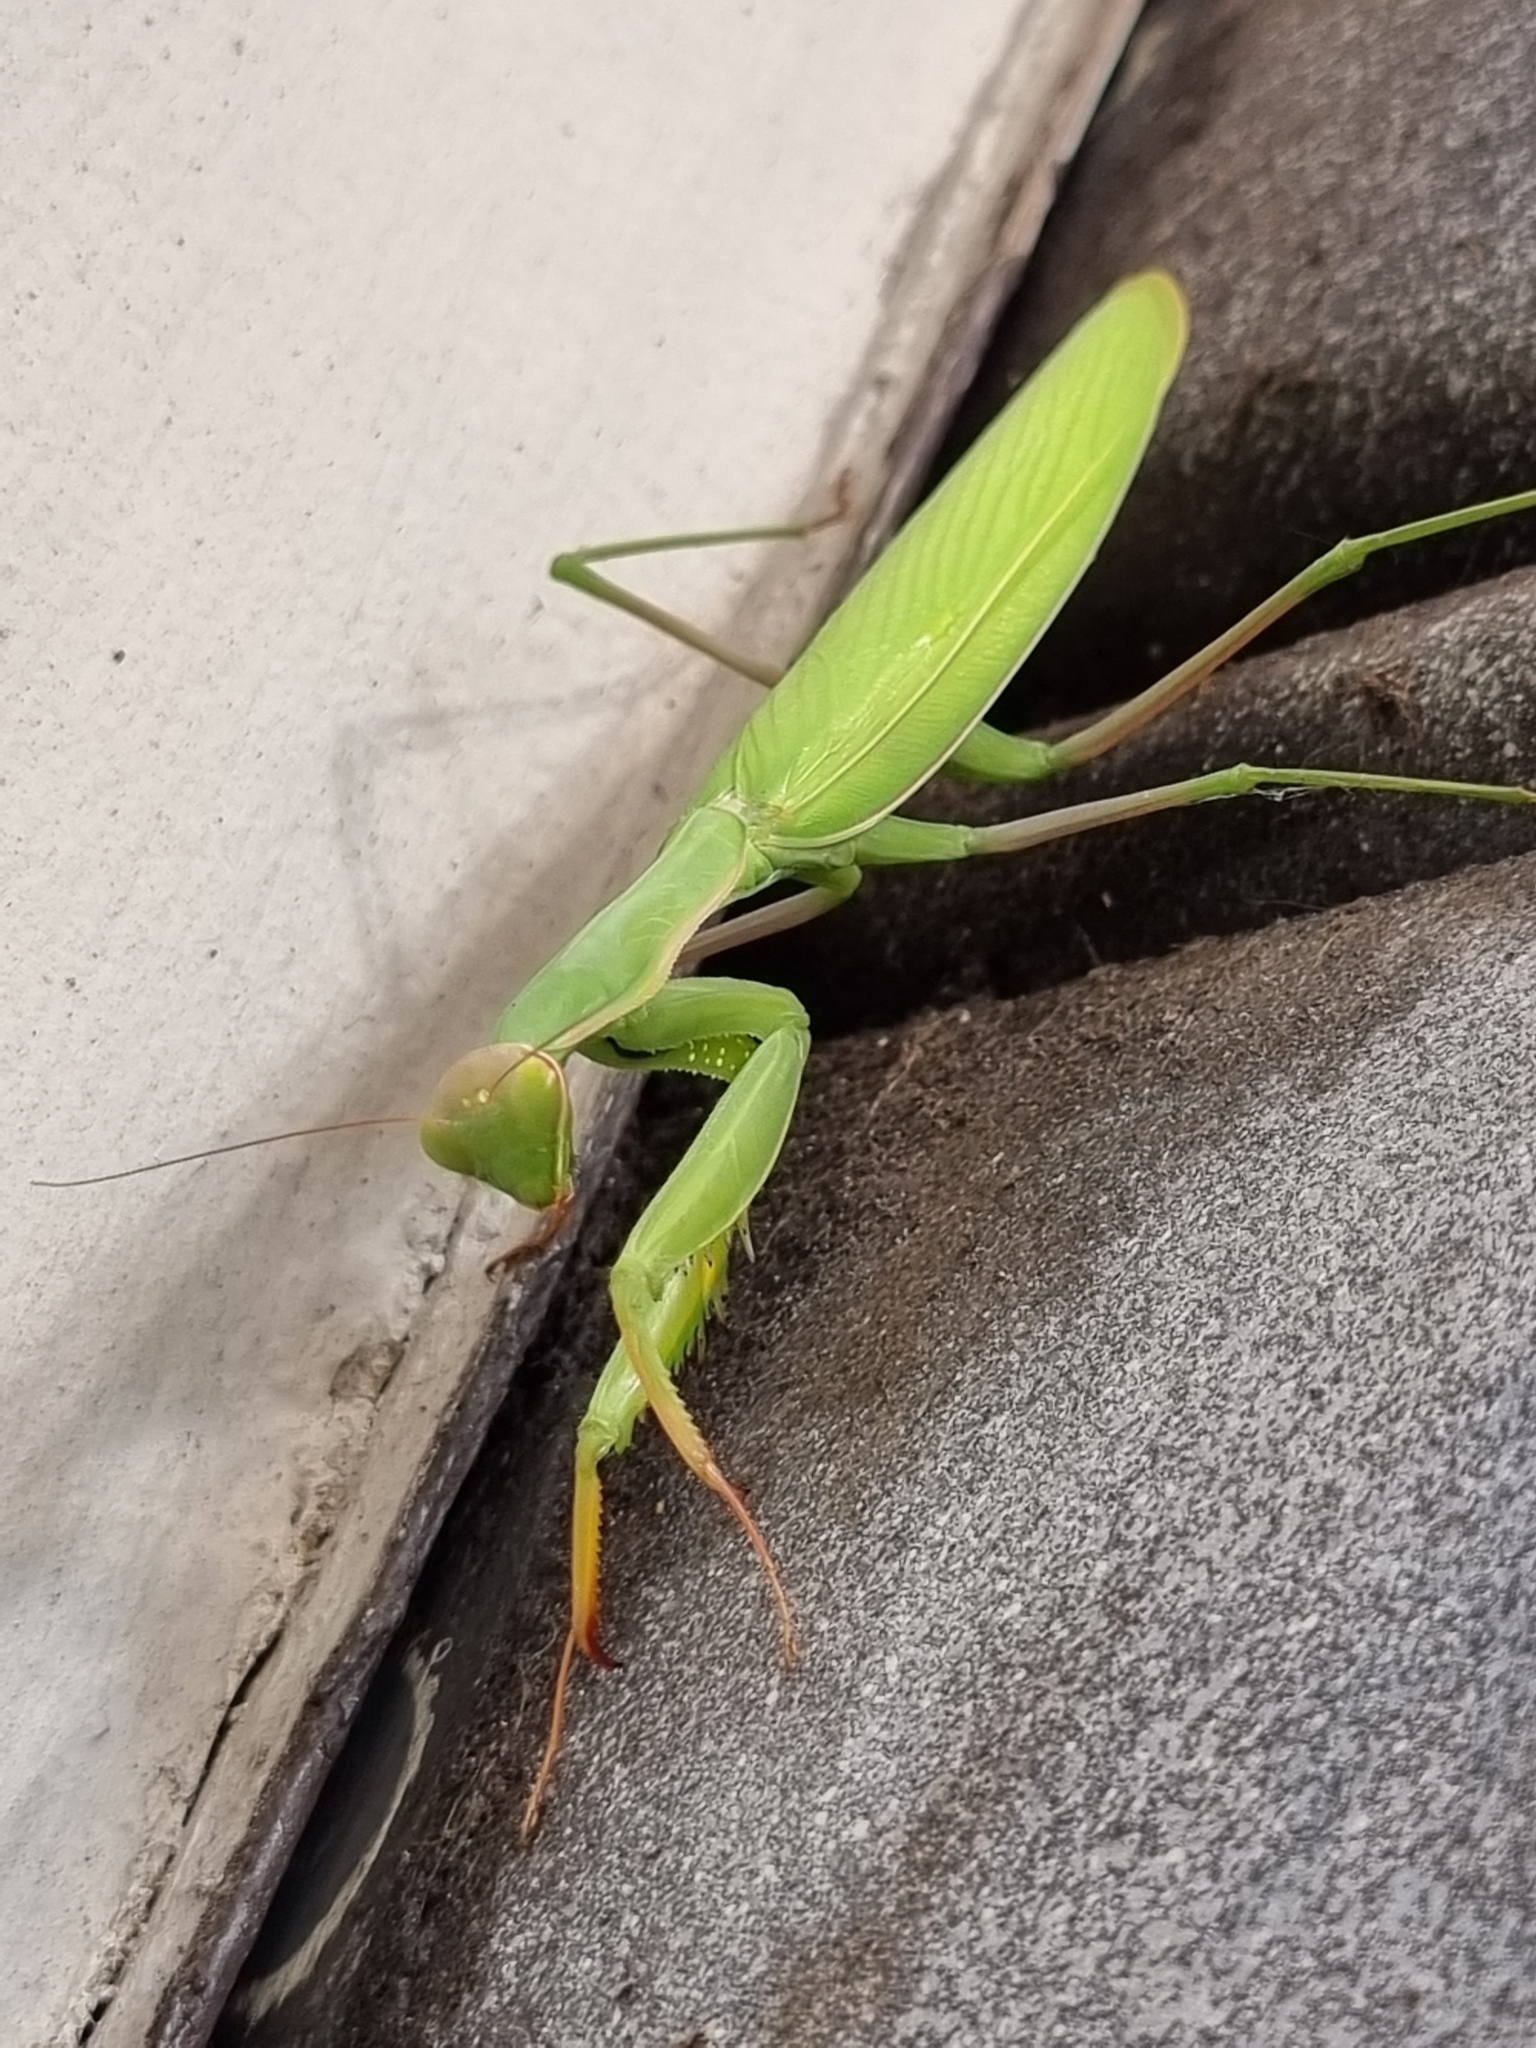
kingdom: Animalia
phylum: Arthropoda
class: Insecta
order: Mantodea
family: Mantidae
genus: Mantis
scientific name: Mantis religiosa
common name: Praying mantis
